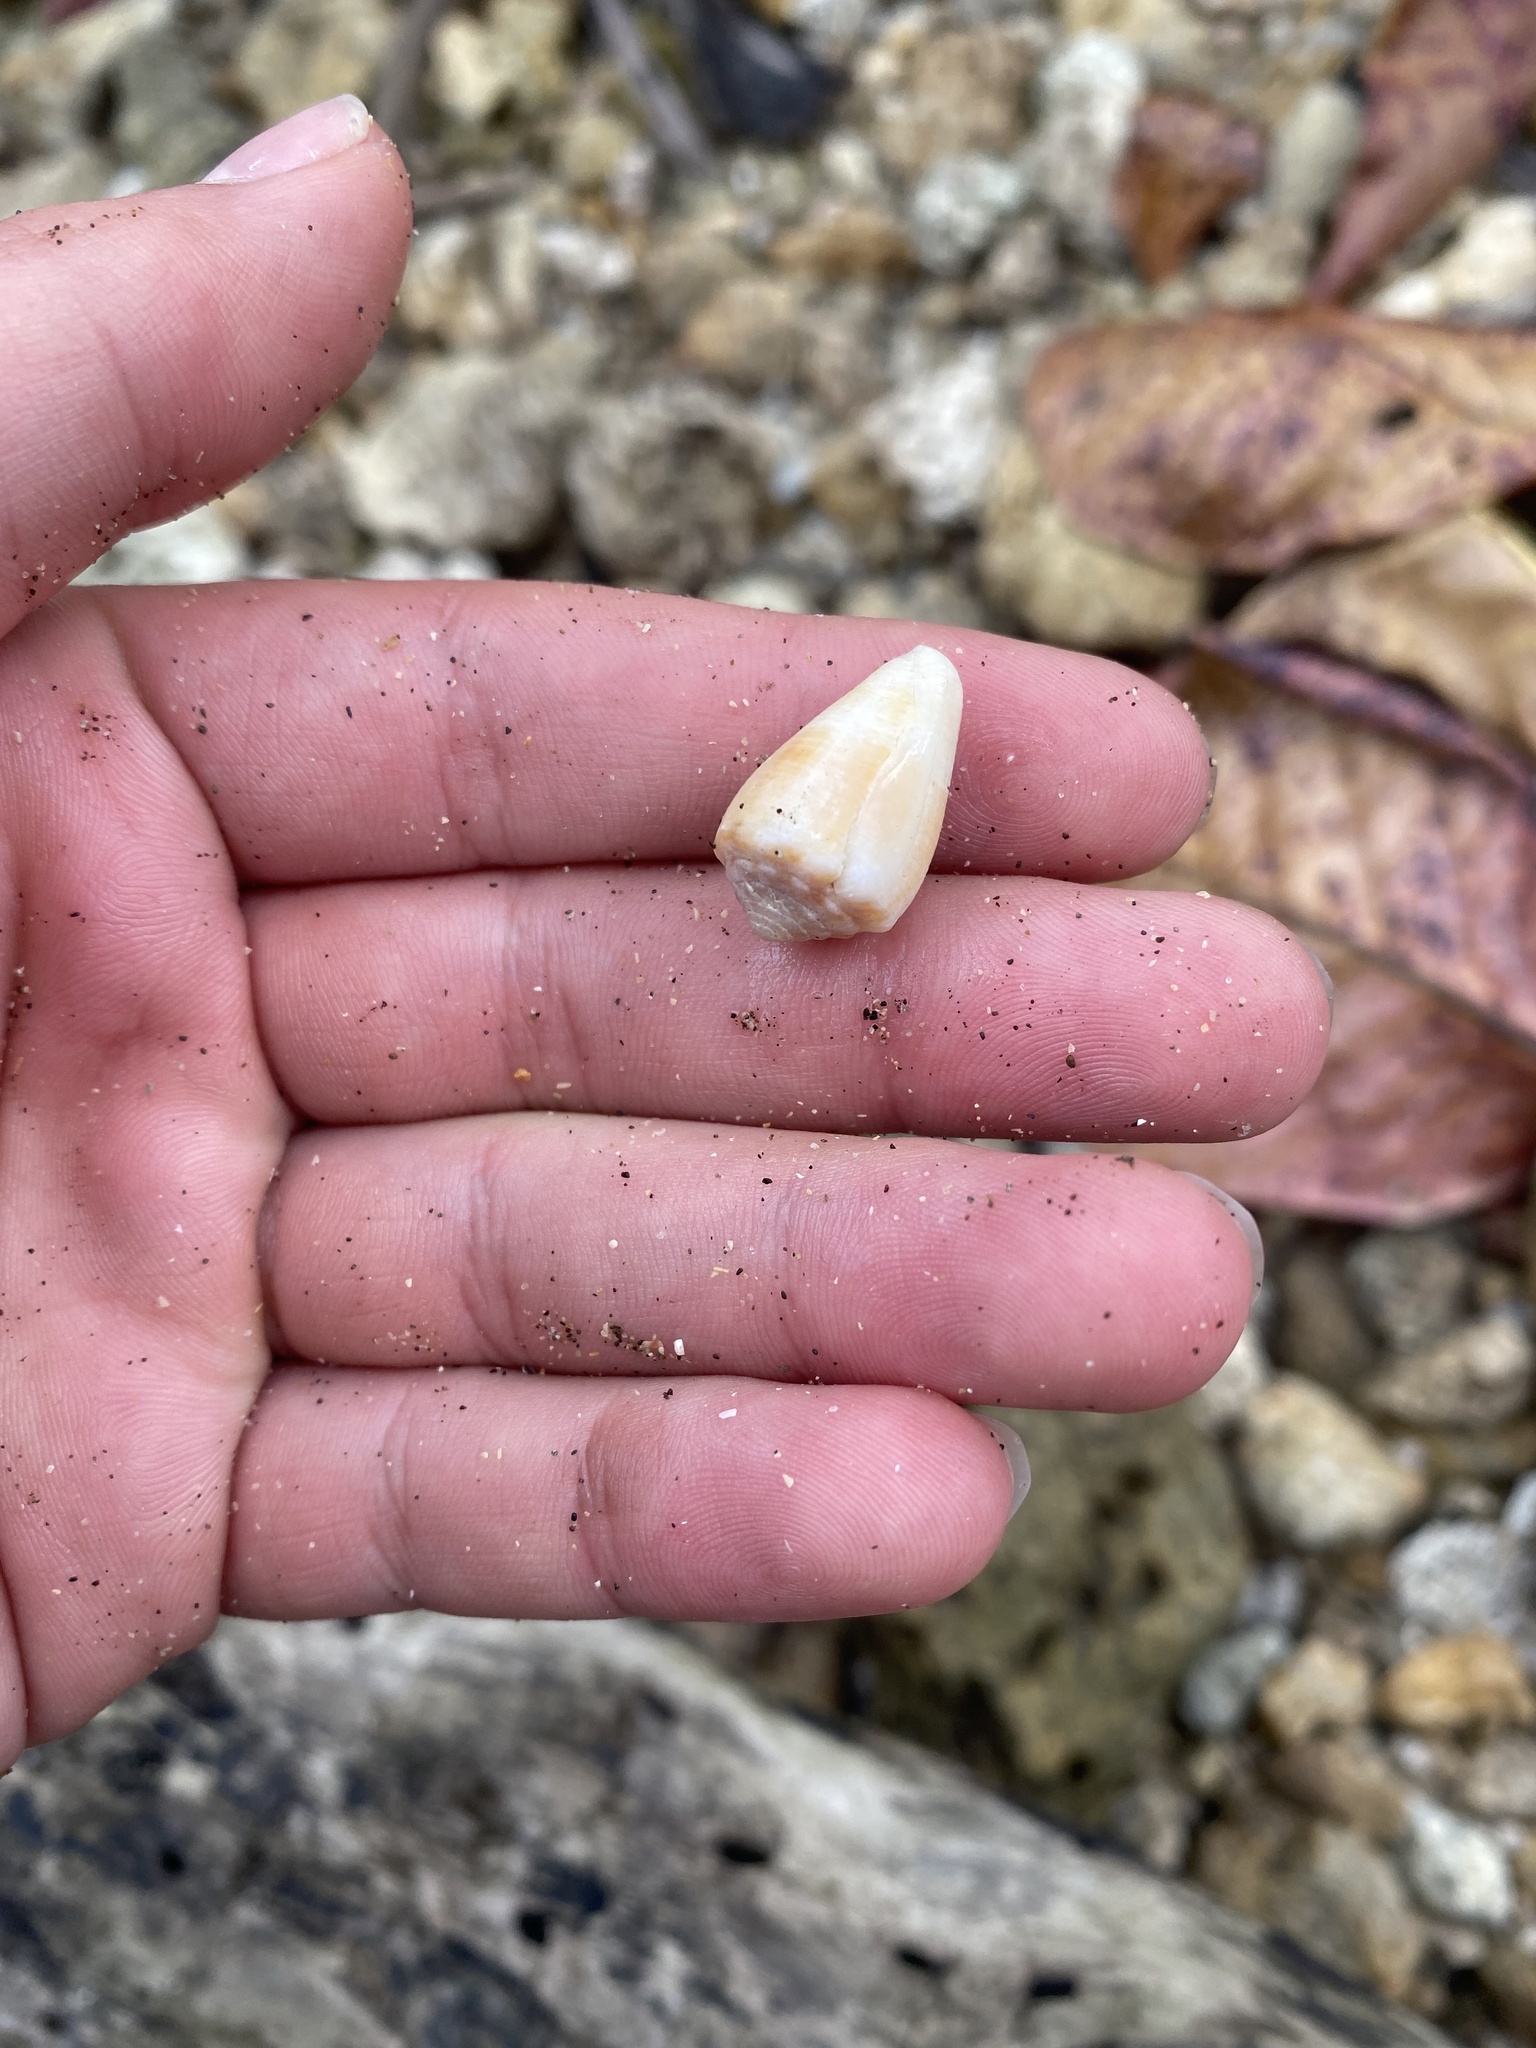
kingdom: Animalia
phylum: Mollusca
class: Gastropoda
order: Neogastropoda
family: Conidae
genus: Conus
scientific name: Conus mus
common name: Mouse cone
